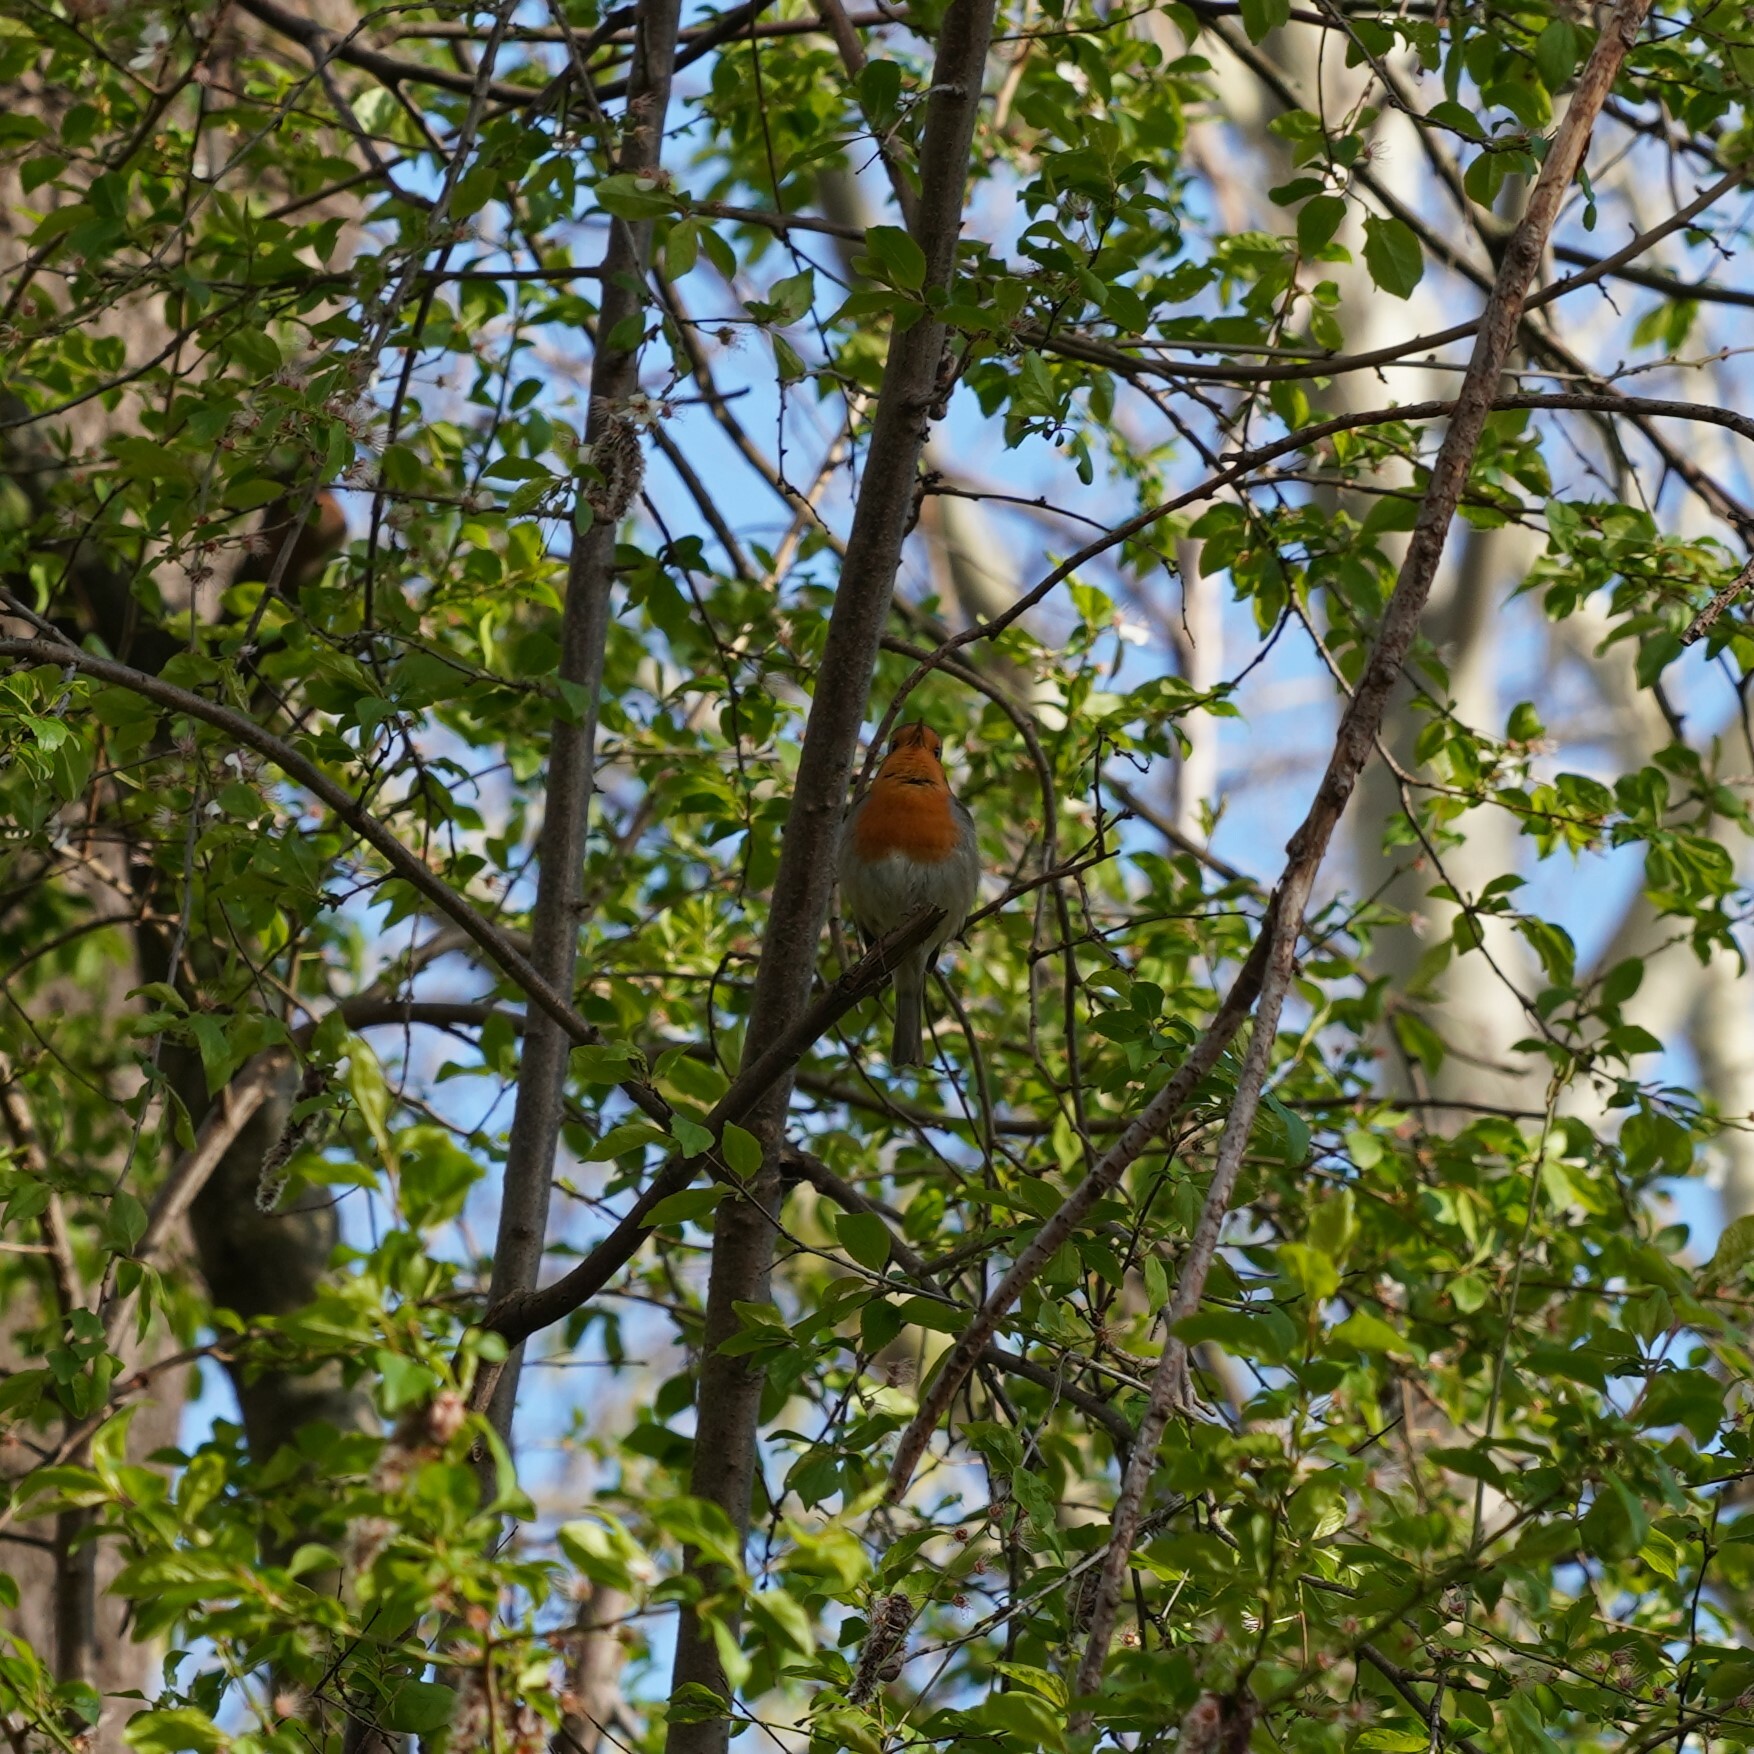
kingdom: Animalia
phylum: Chordata
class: Aves
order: Passeriformes
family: Muscicapidae
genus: Erithacus
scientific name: Erithacus rubecula
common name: European robin
